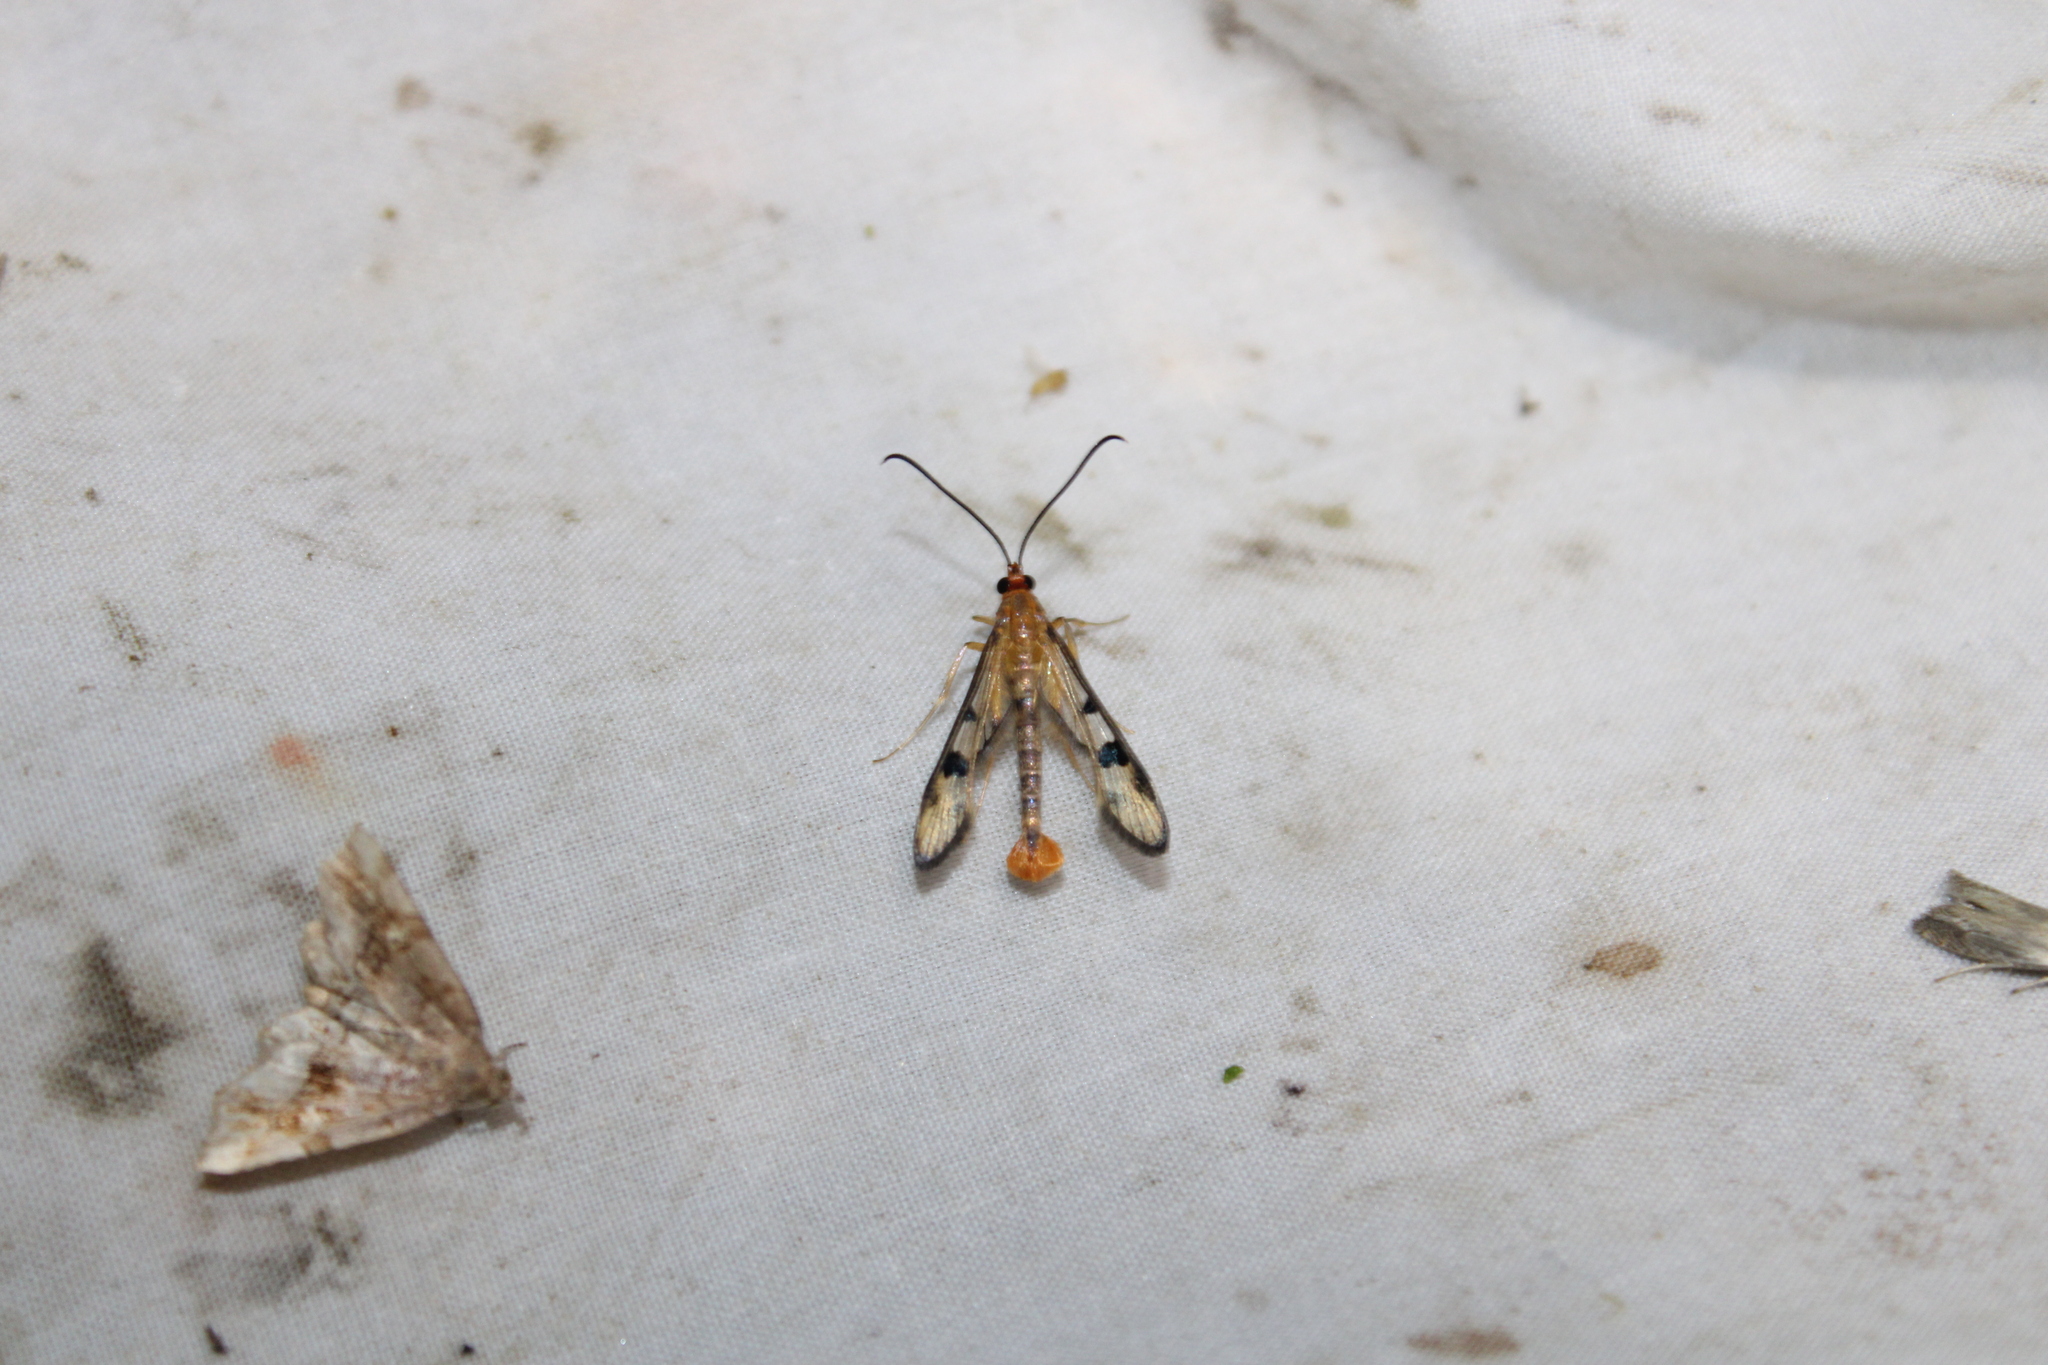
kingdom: Animalia
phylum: Arthropoda
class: Insecta
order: Lepidoptera
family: Sesiidae
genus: Synanthedon
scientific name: Synanthedon acerni
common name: Maple callus borer moth
